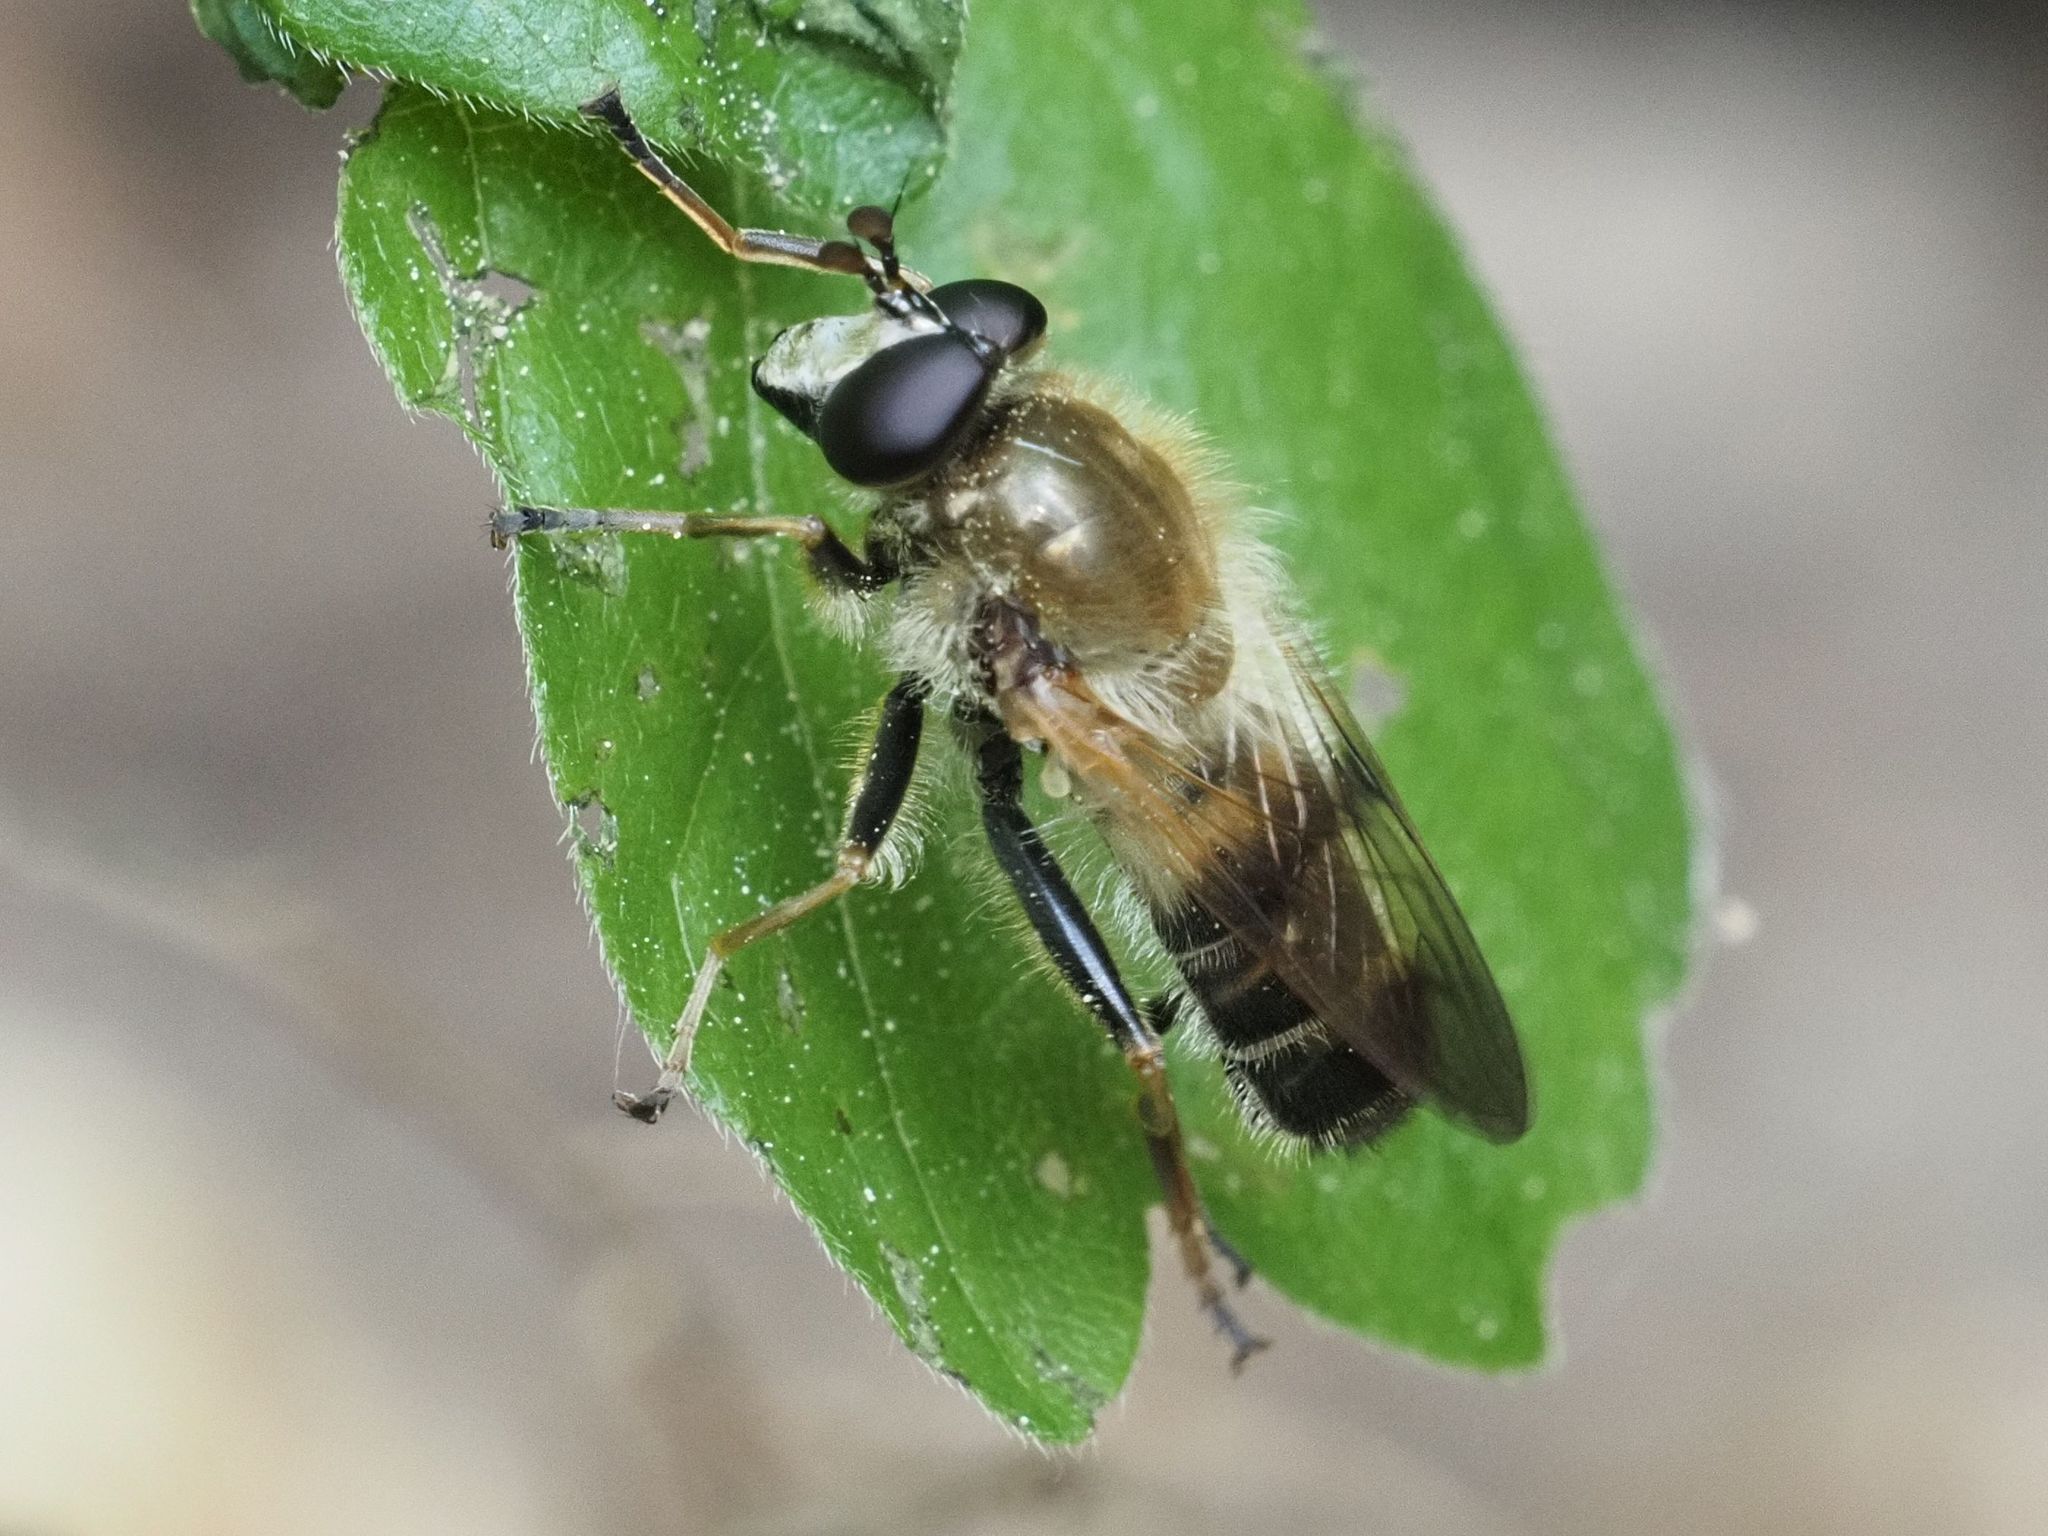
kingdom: Animalia
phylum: Arthropoda
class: Insecta
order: Diptera
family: Syrphidae
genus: Criorhina
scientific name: Criorhina asilica
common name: Pale-banded bear hoverfly
